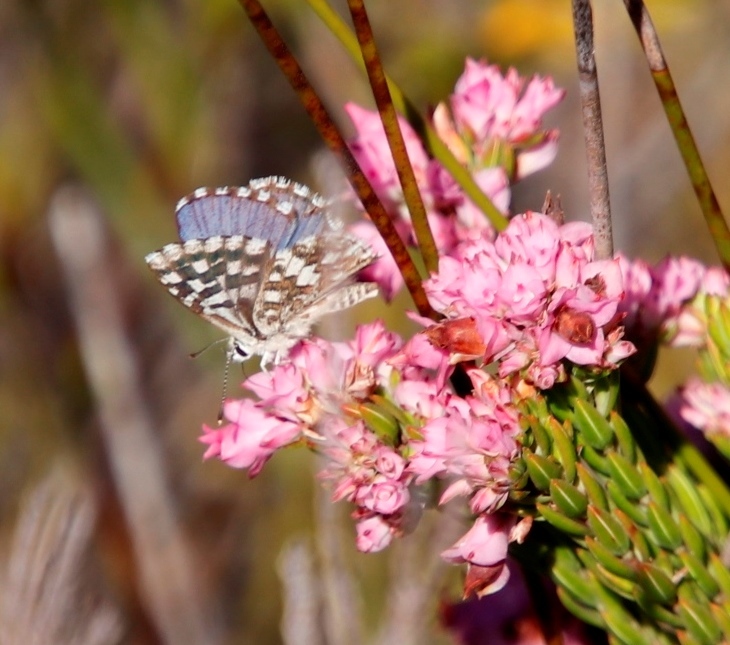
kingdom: Animalia
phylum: Arthropoda
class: Insecta
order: Lepidoptera
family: Lycaenidae
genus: Tarucus
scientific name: Tarucus thespis
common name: Vivid dotted blue
